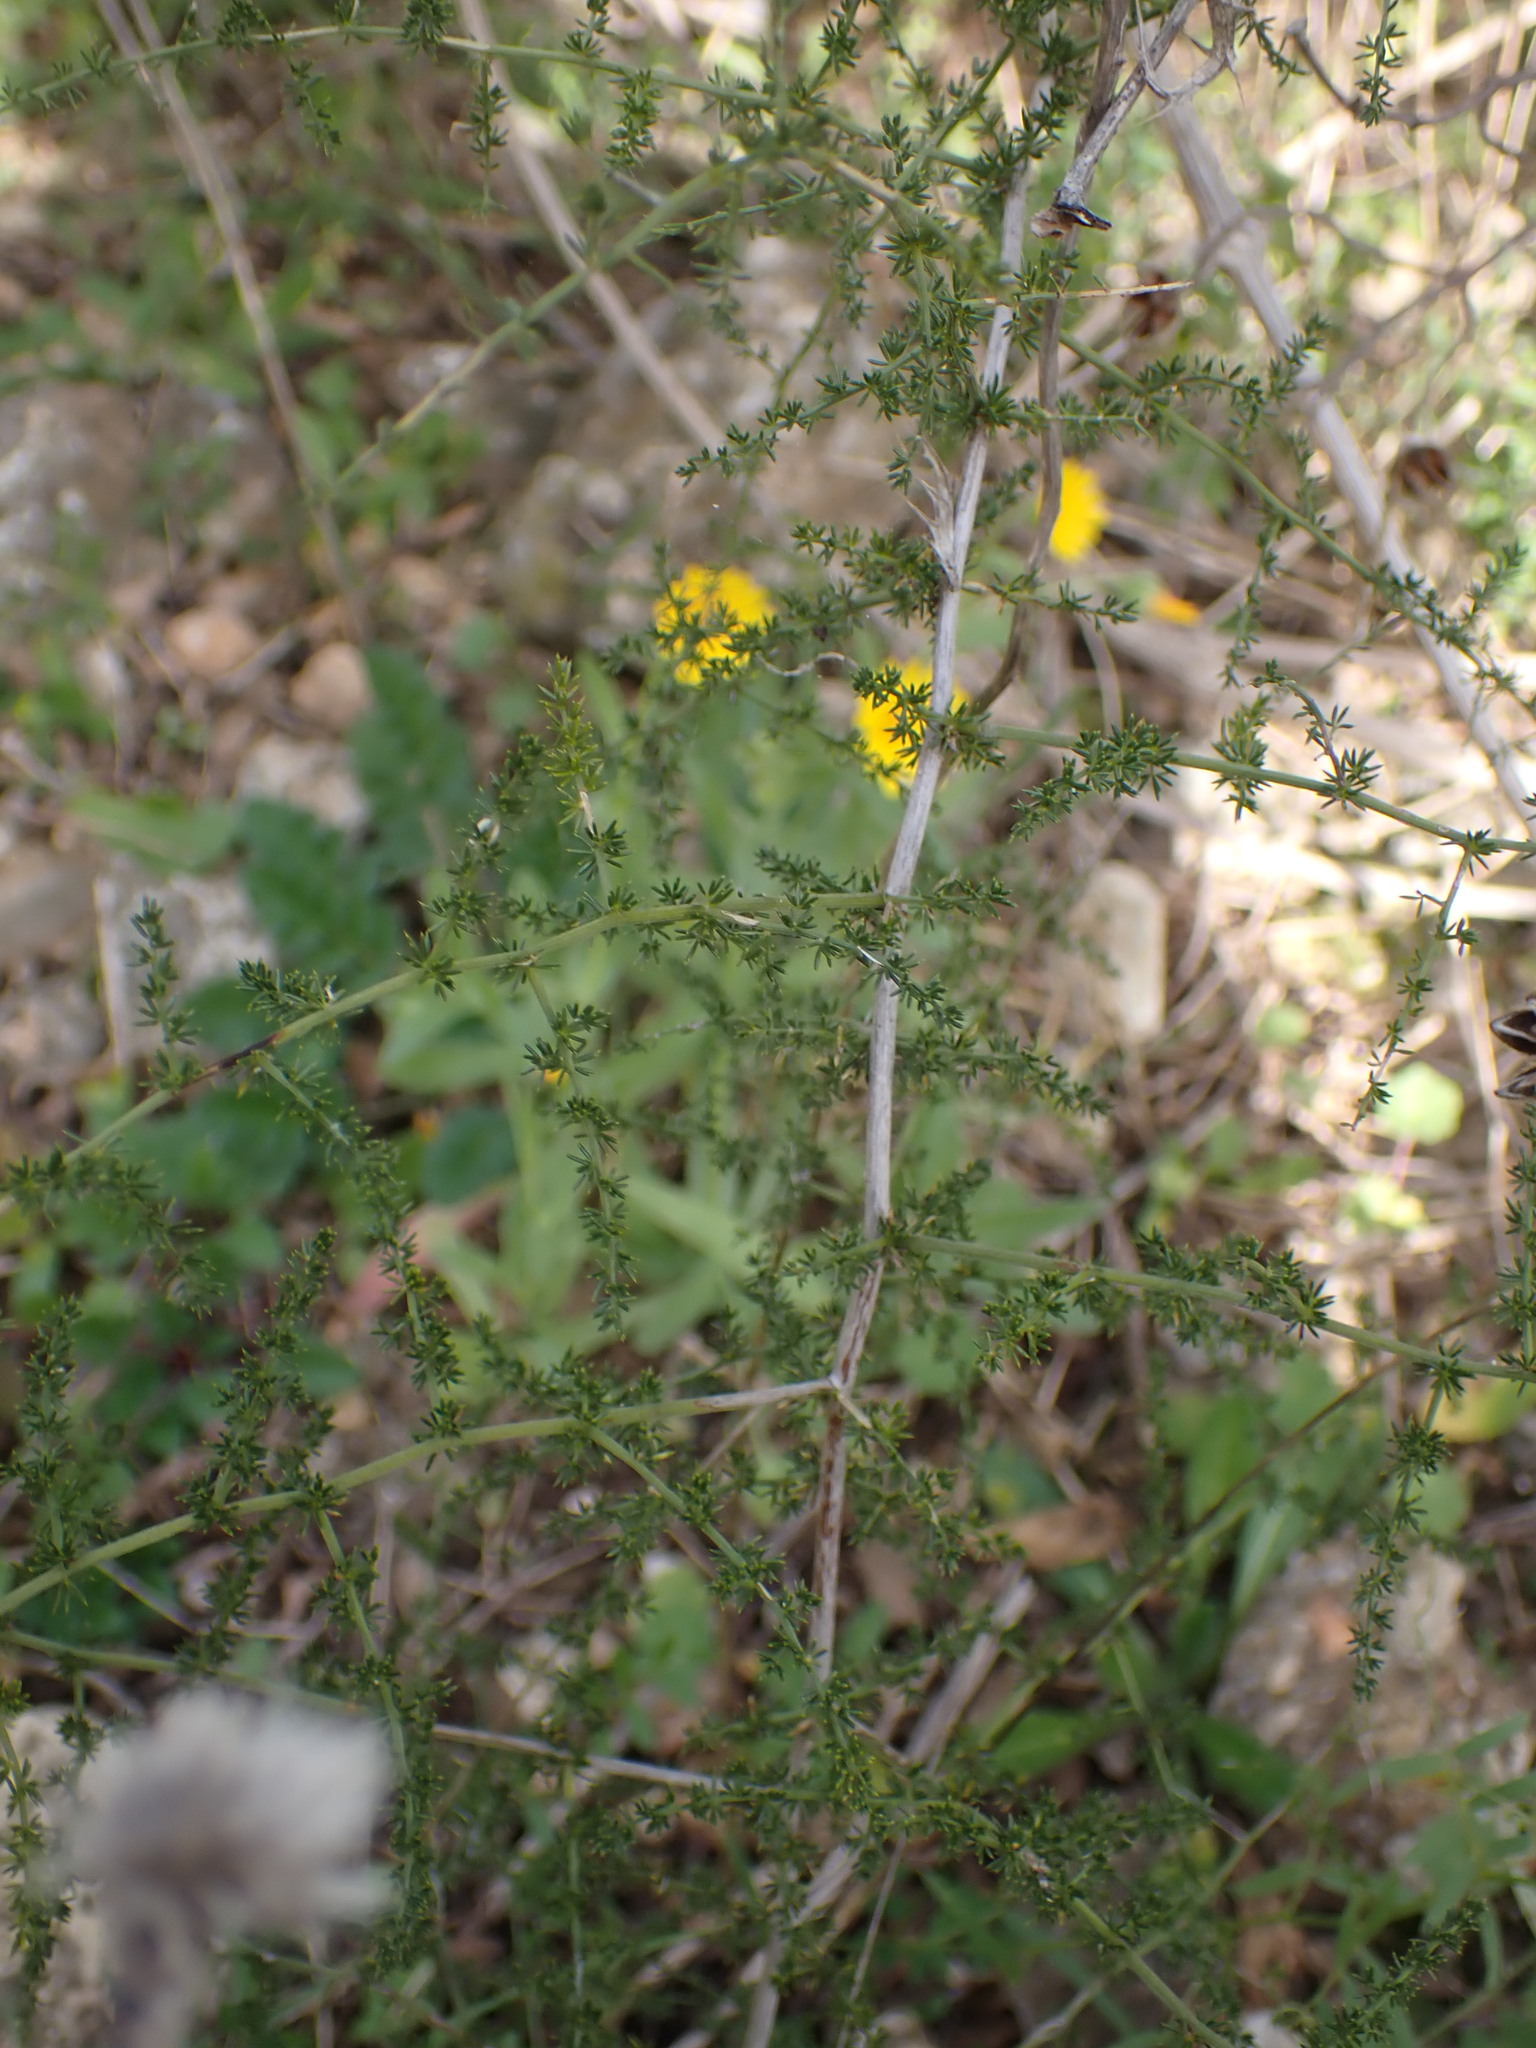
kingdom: Plantae
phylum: Tracheophyta
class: Liliopsida
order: Asparagales
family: Asparagaceae
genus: Asparagus
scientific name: Asparagus acutifolius
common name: Wild asparagus
